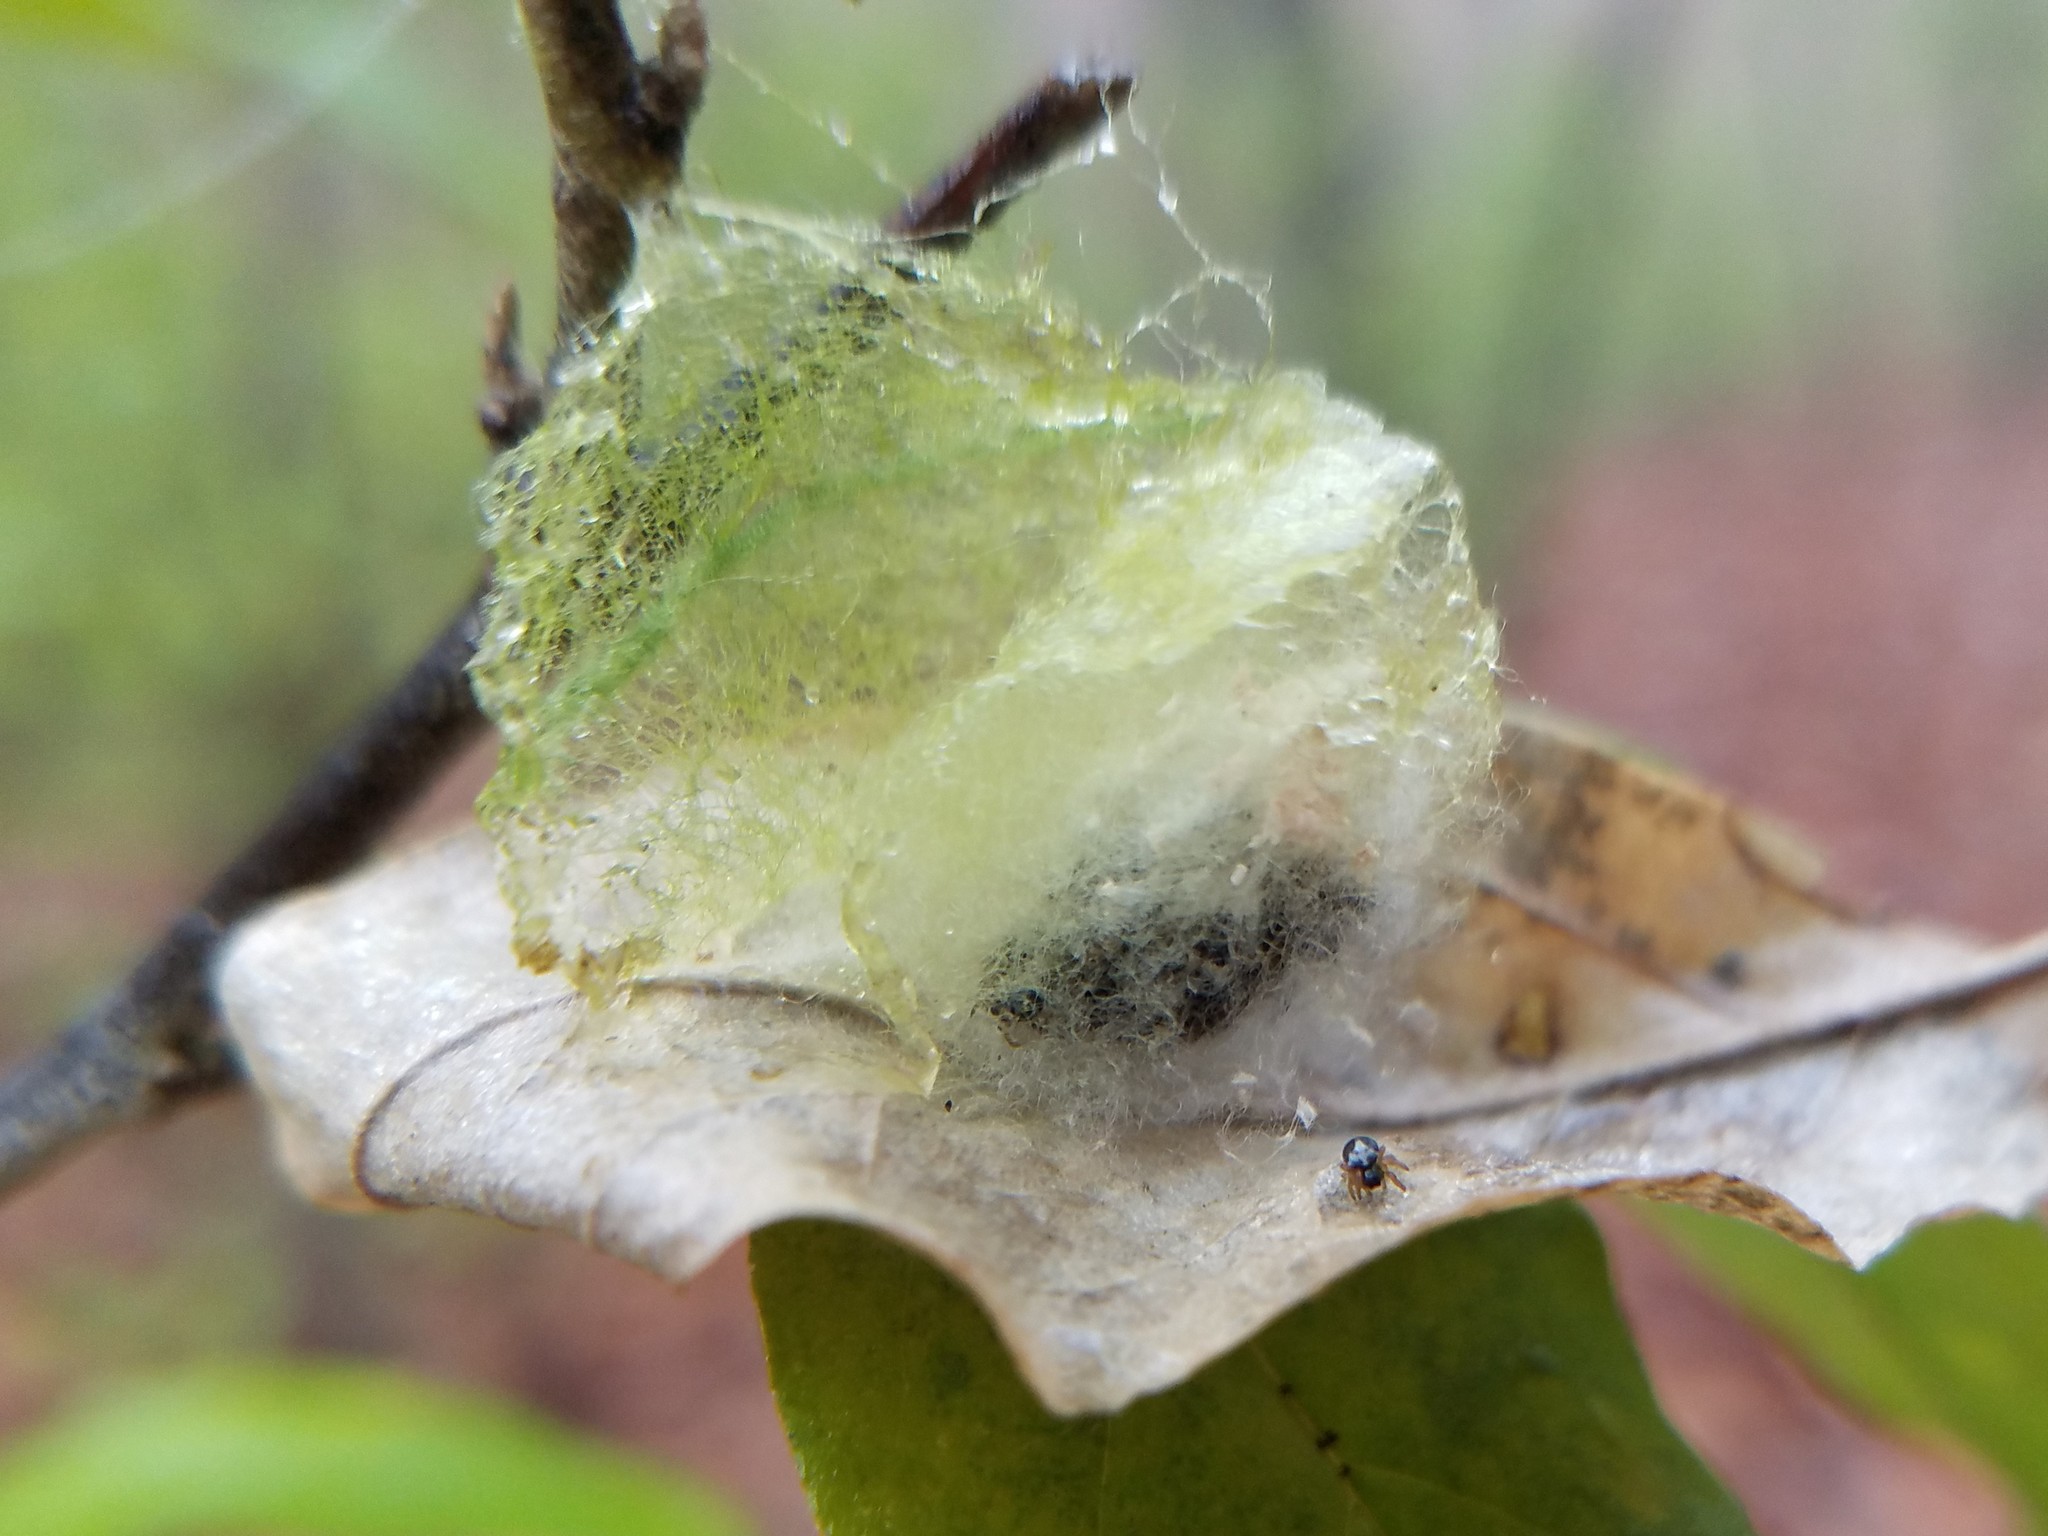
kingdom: Animalia
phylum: Arthropoda
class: Arachnida
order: Araneae
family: Araneidae
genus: Gasteracantha
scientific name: Gasteracantha cancriformis
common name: Orb weavers
